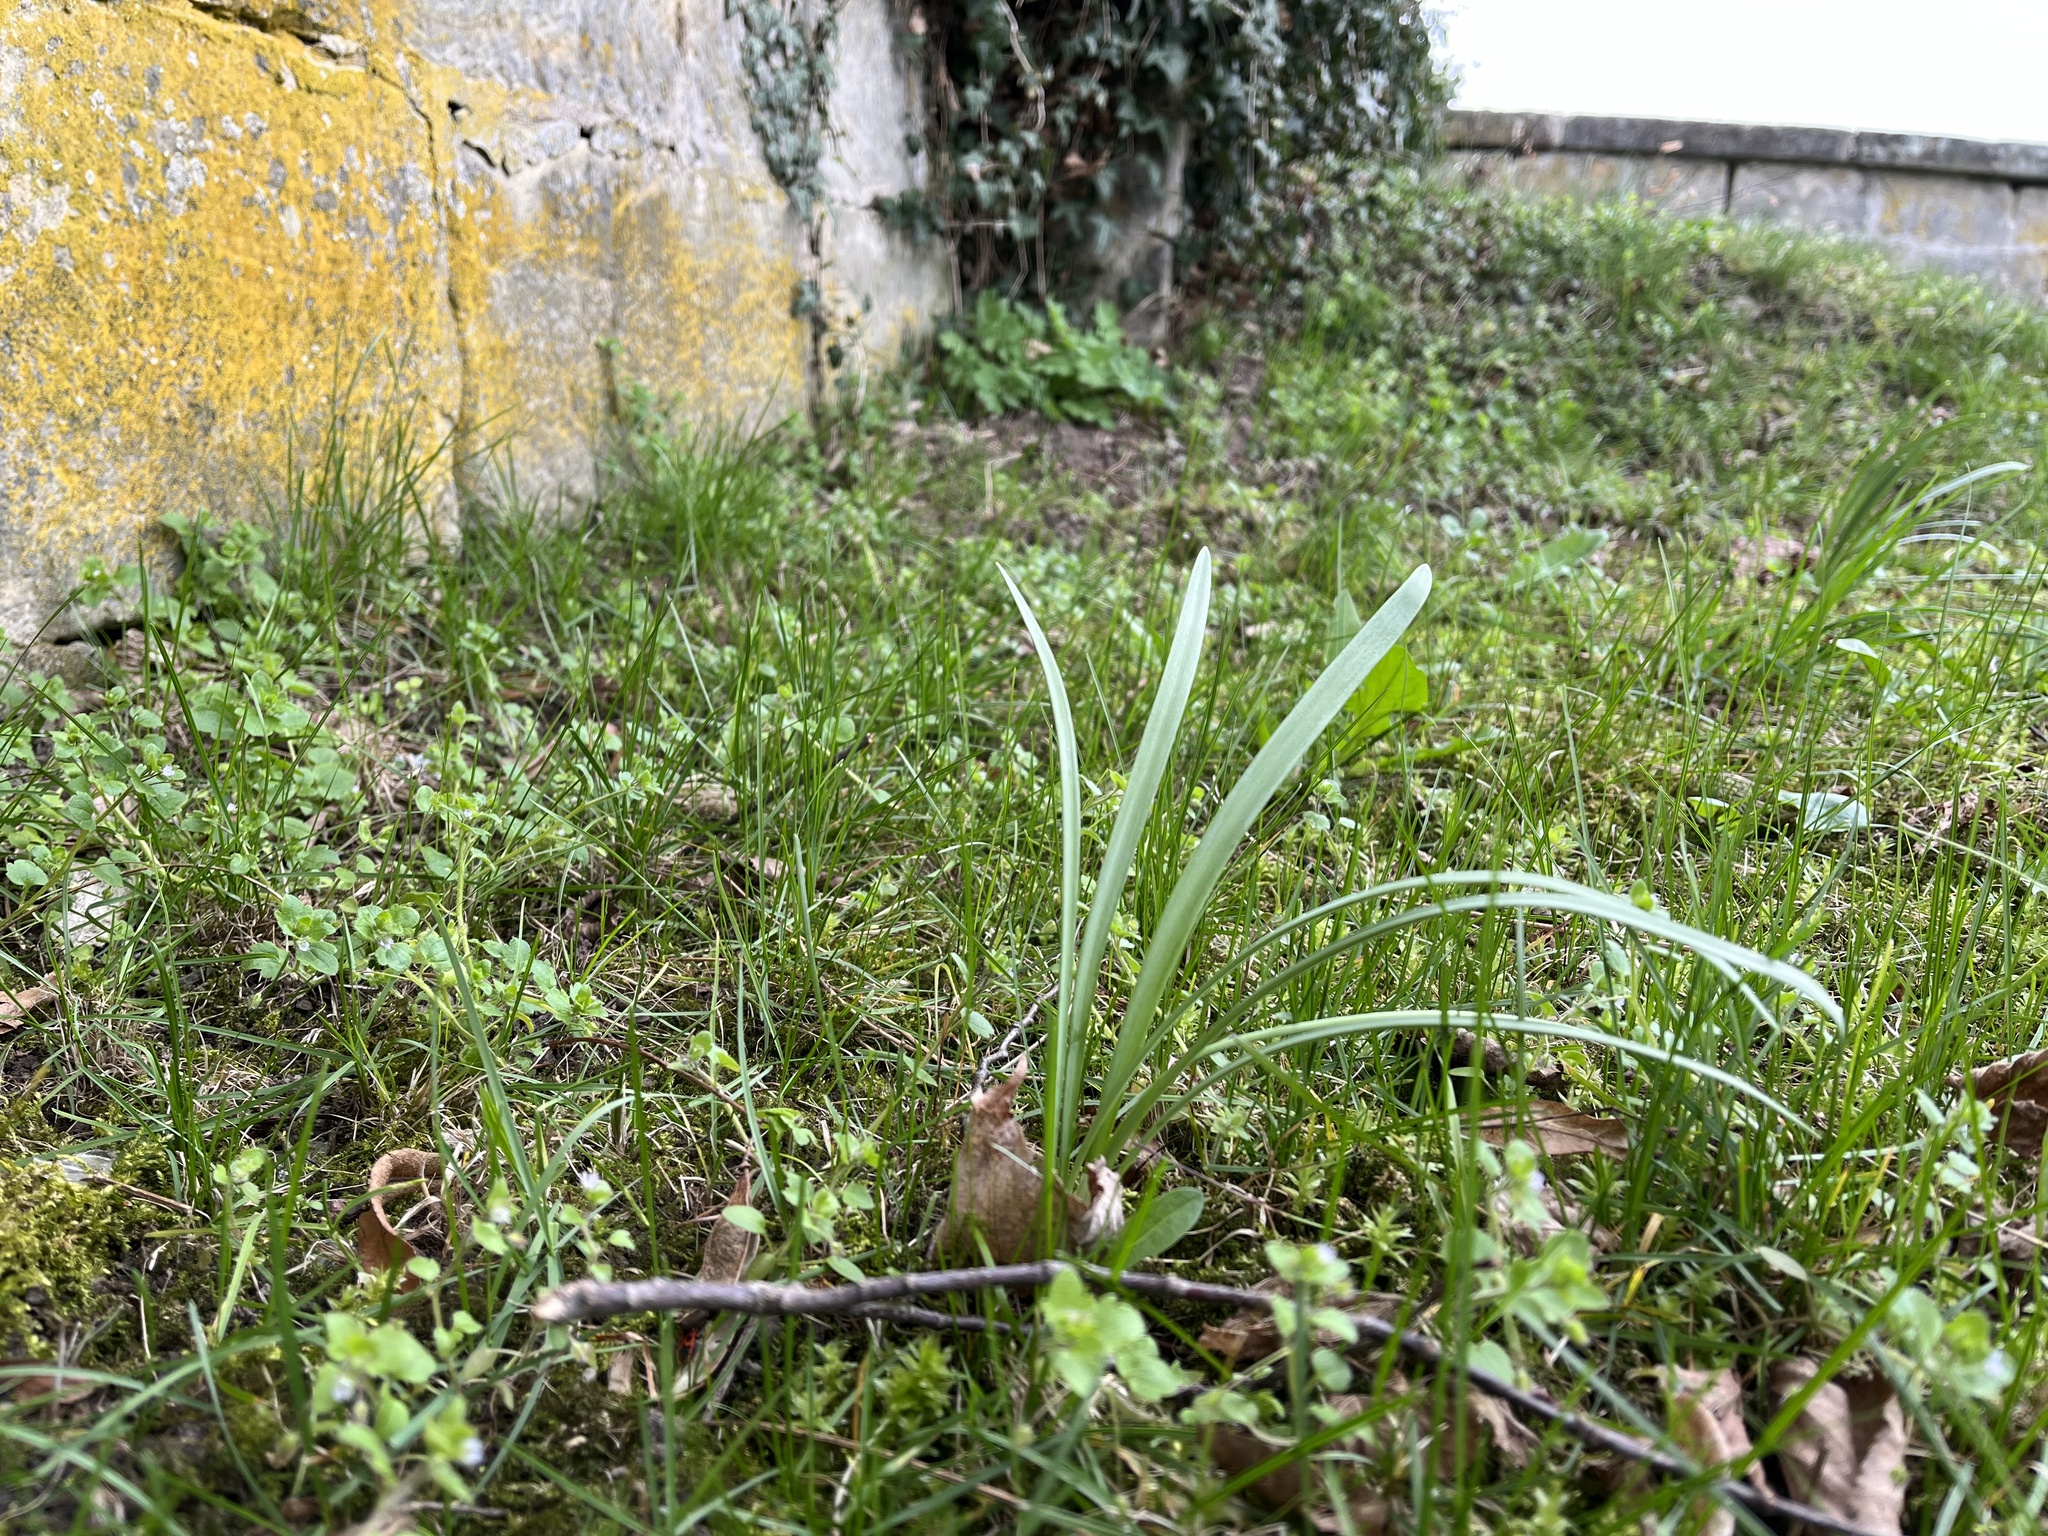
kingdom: Plantae
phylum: Tracheophyta
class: Liliopsida
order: Asparagales
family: Amaryllidaceae
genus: Galanthus
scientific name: Galanthus nivalis
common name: Snowdrop
